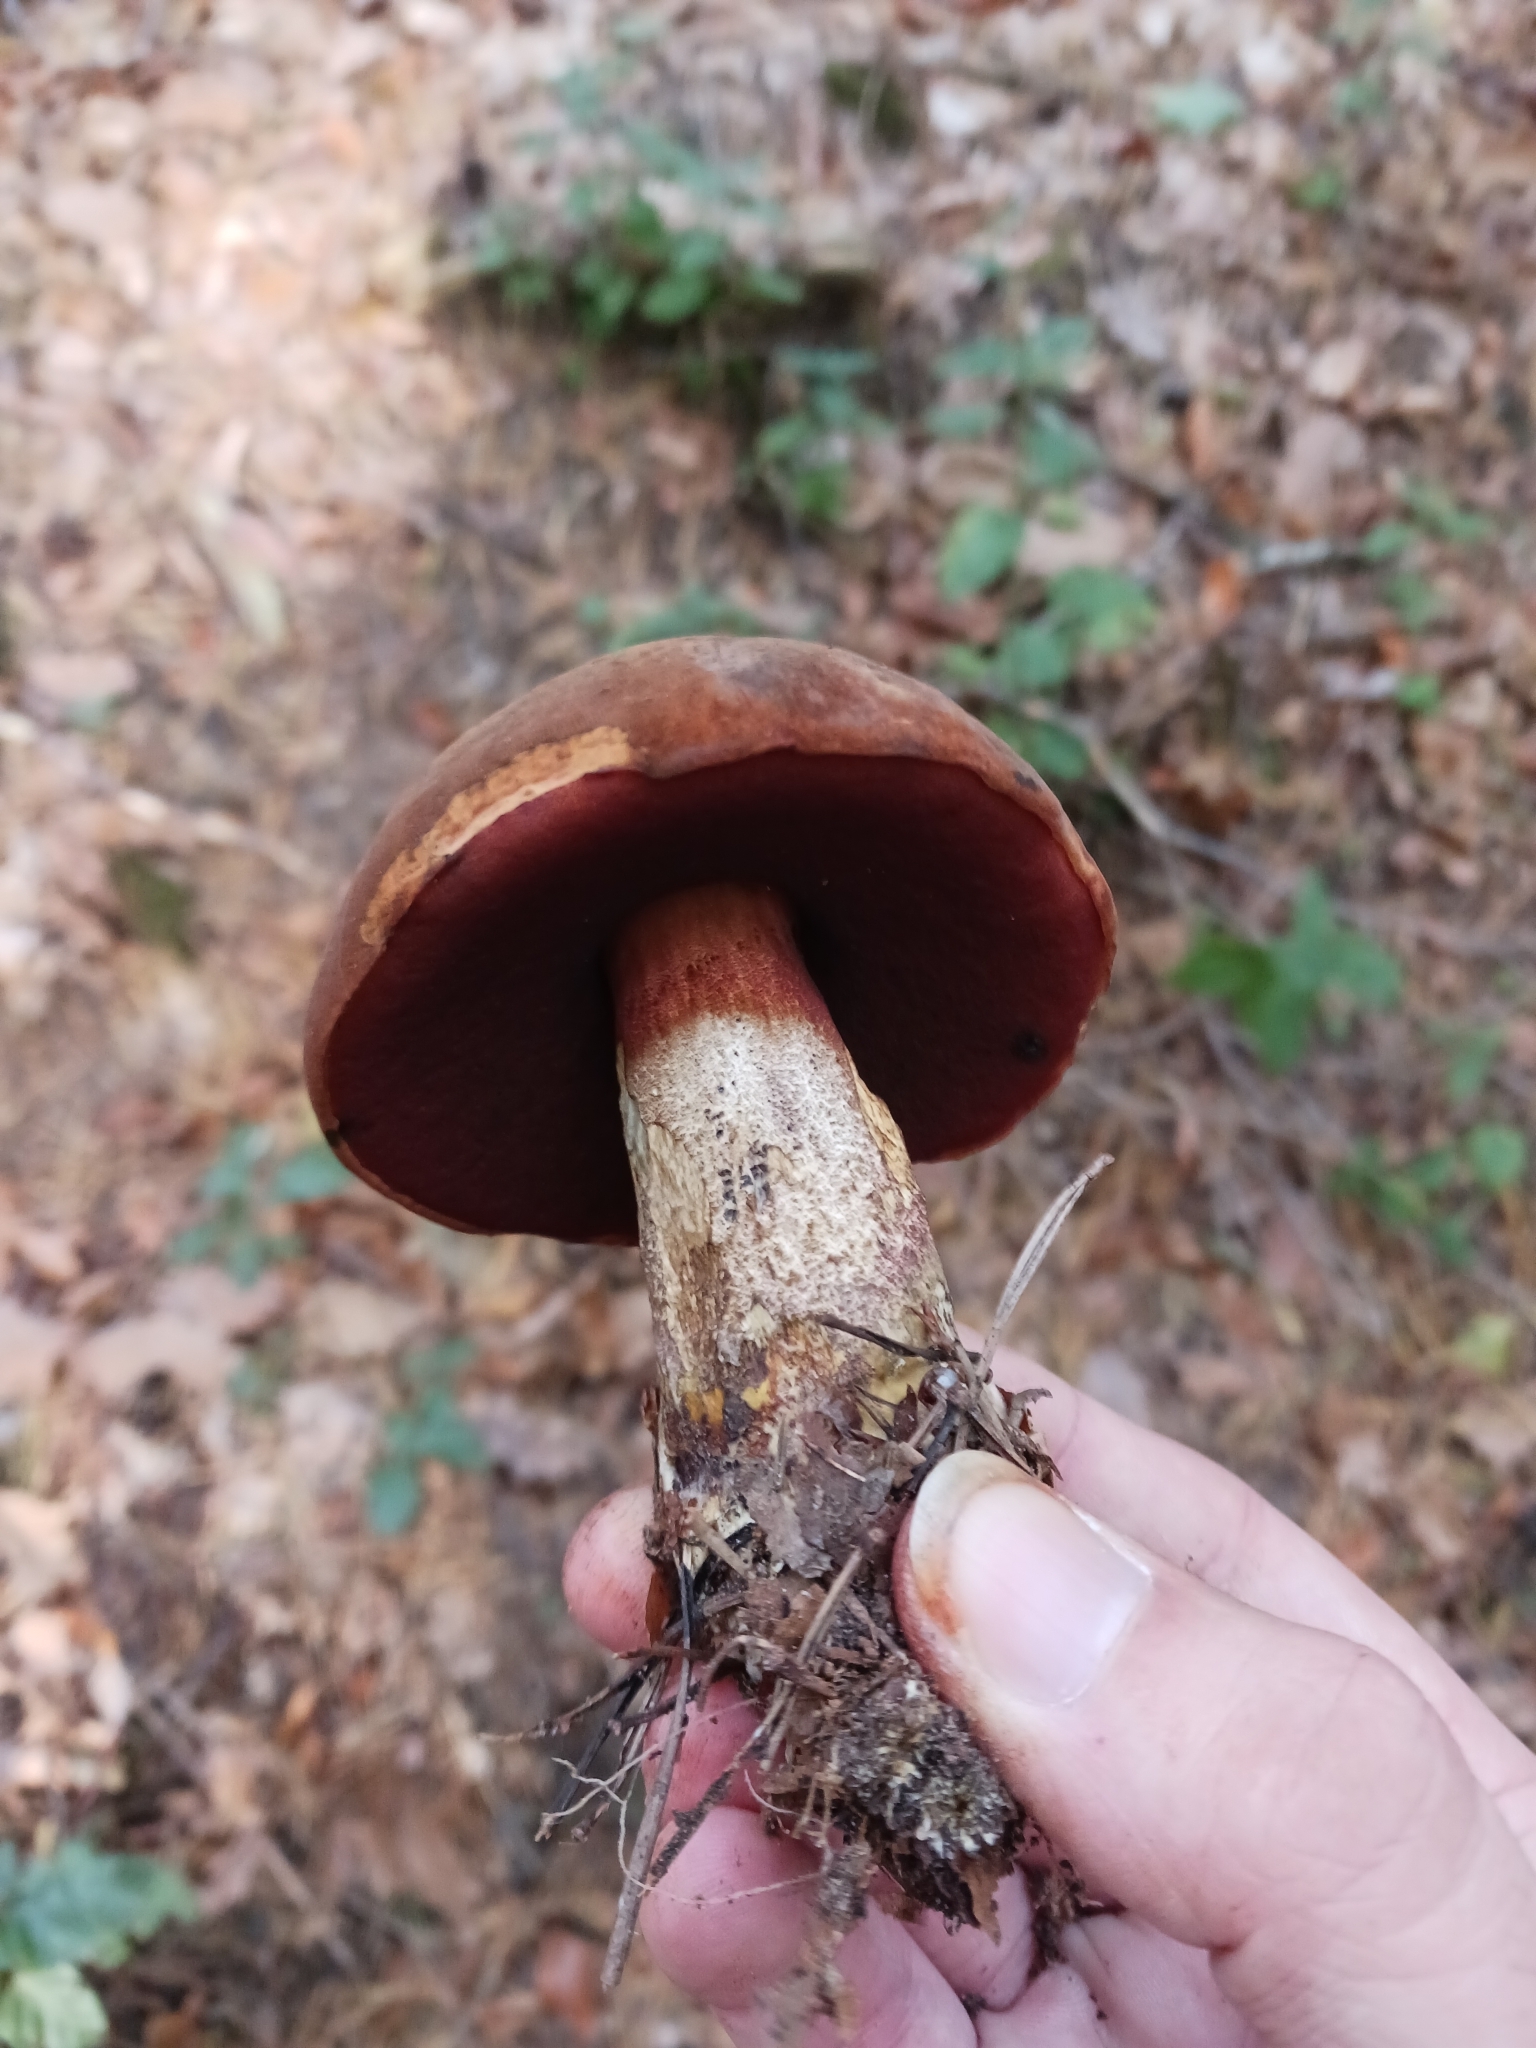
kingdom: Fungi
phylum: Basidiomycota
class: Agaricomycetes
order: Boletales
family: Boletaceae
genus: Neoboletus
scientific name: Neoboletus erythropus
